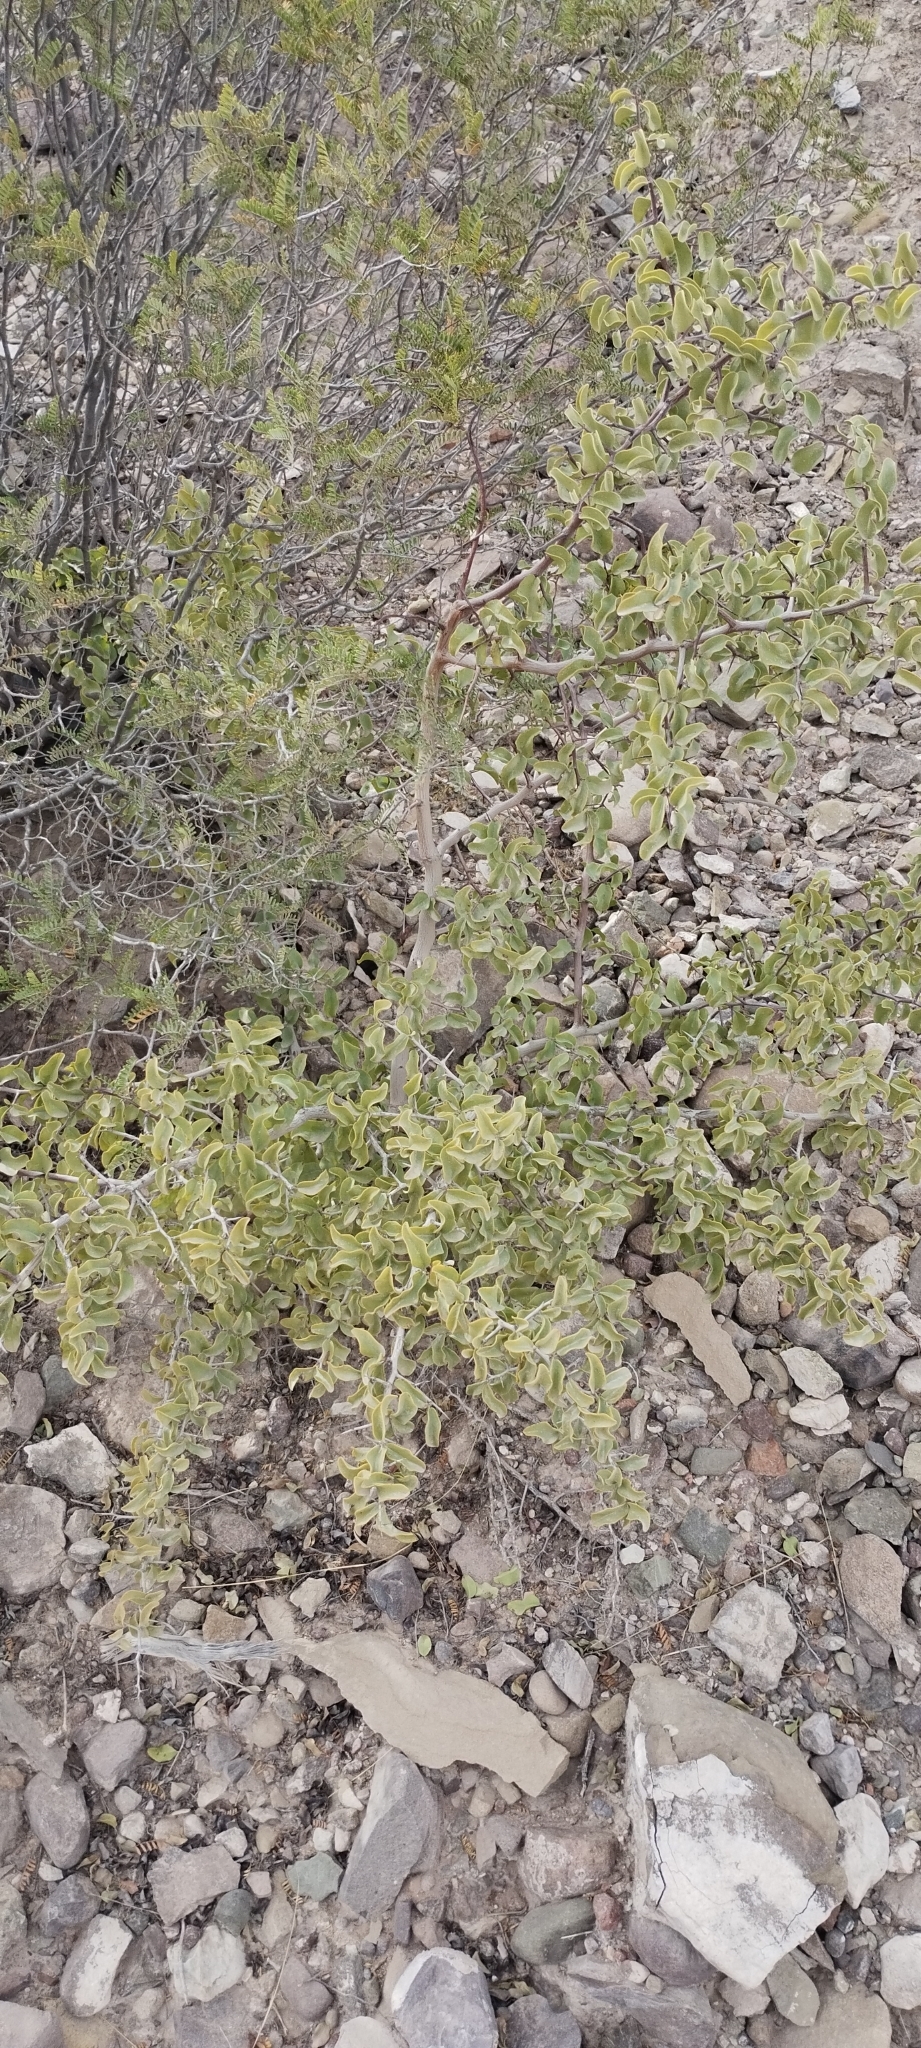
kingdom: Plantae
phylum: Tracheophyta
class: Magnoliopsida
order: Santalales
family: Ximeniaceae
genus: Ximenia
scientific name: Ximenia americana
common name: Tallowwood
